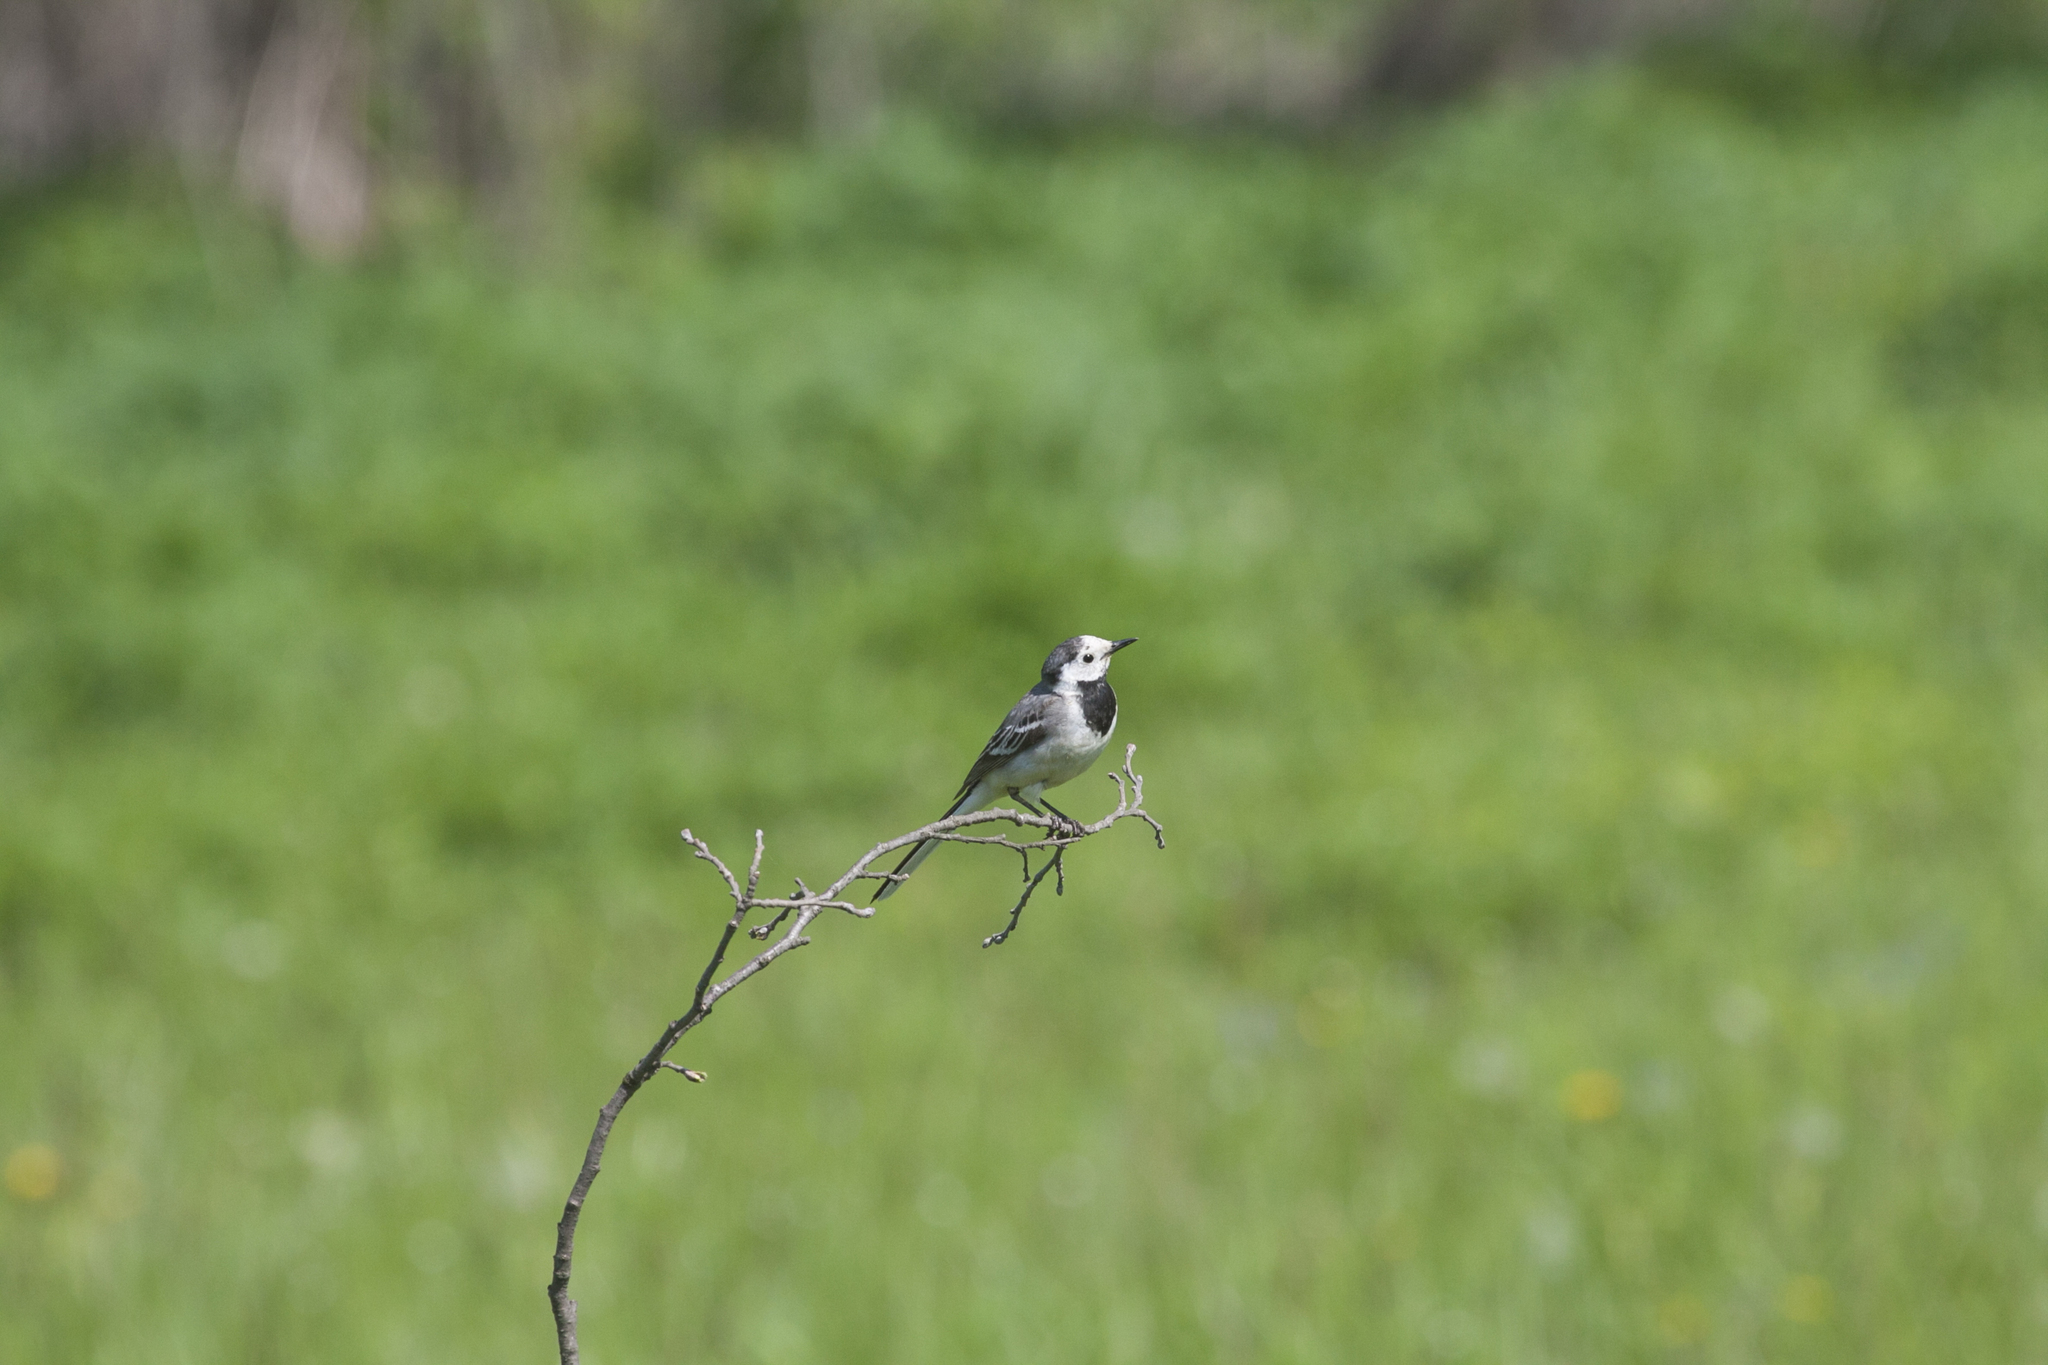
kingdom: Animalia
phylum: Chordata
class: Aves
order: Passeriformes
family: Motacillidae
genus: Motacilla
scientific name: Motacilla alba
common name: White wagtail
